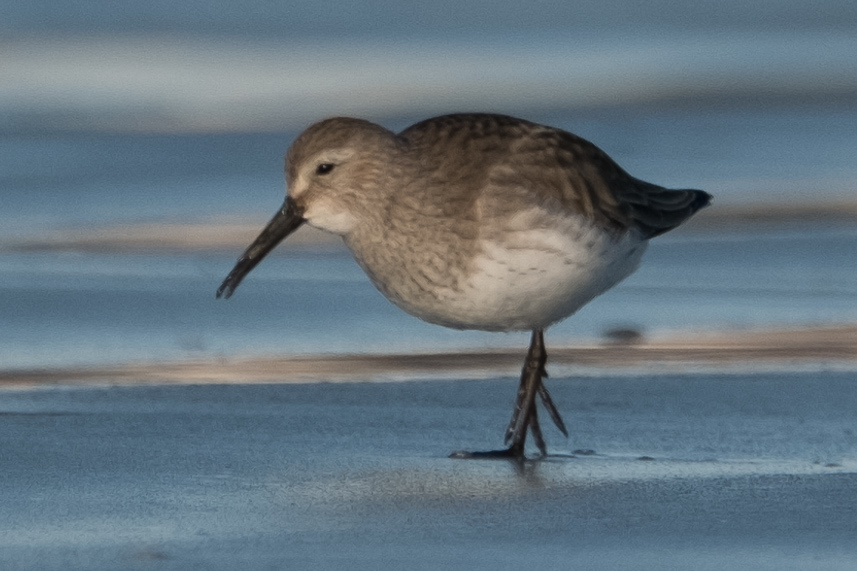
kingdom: Animalia
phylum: Chordata
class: Aves
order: Charadriiformes
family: Scolopacidae
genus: Calidris
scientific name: Calidris alpina
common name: Dunlin
